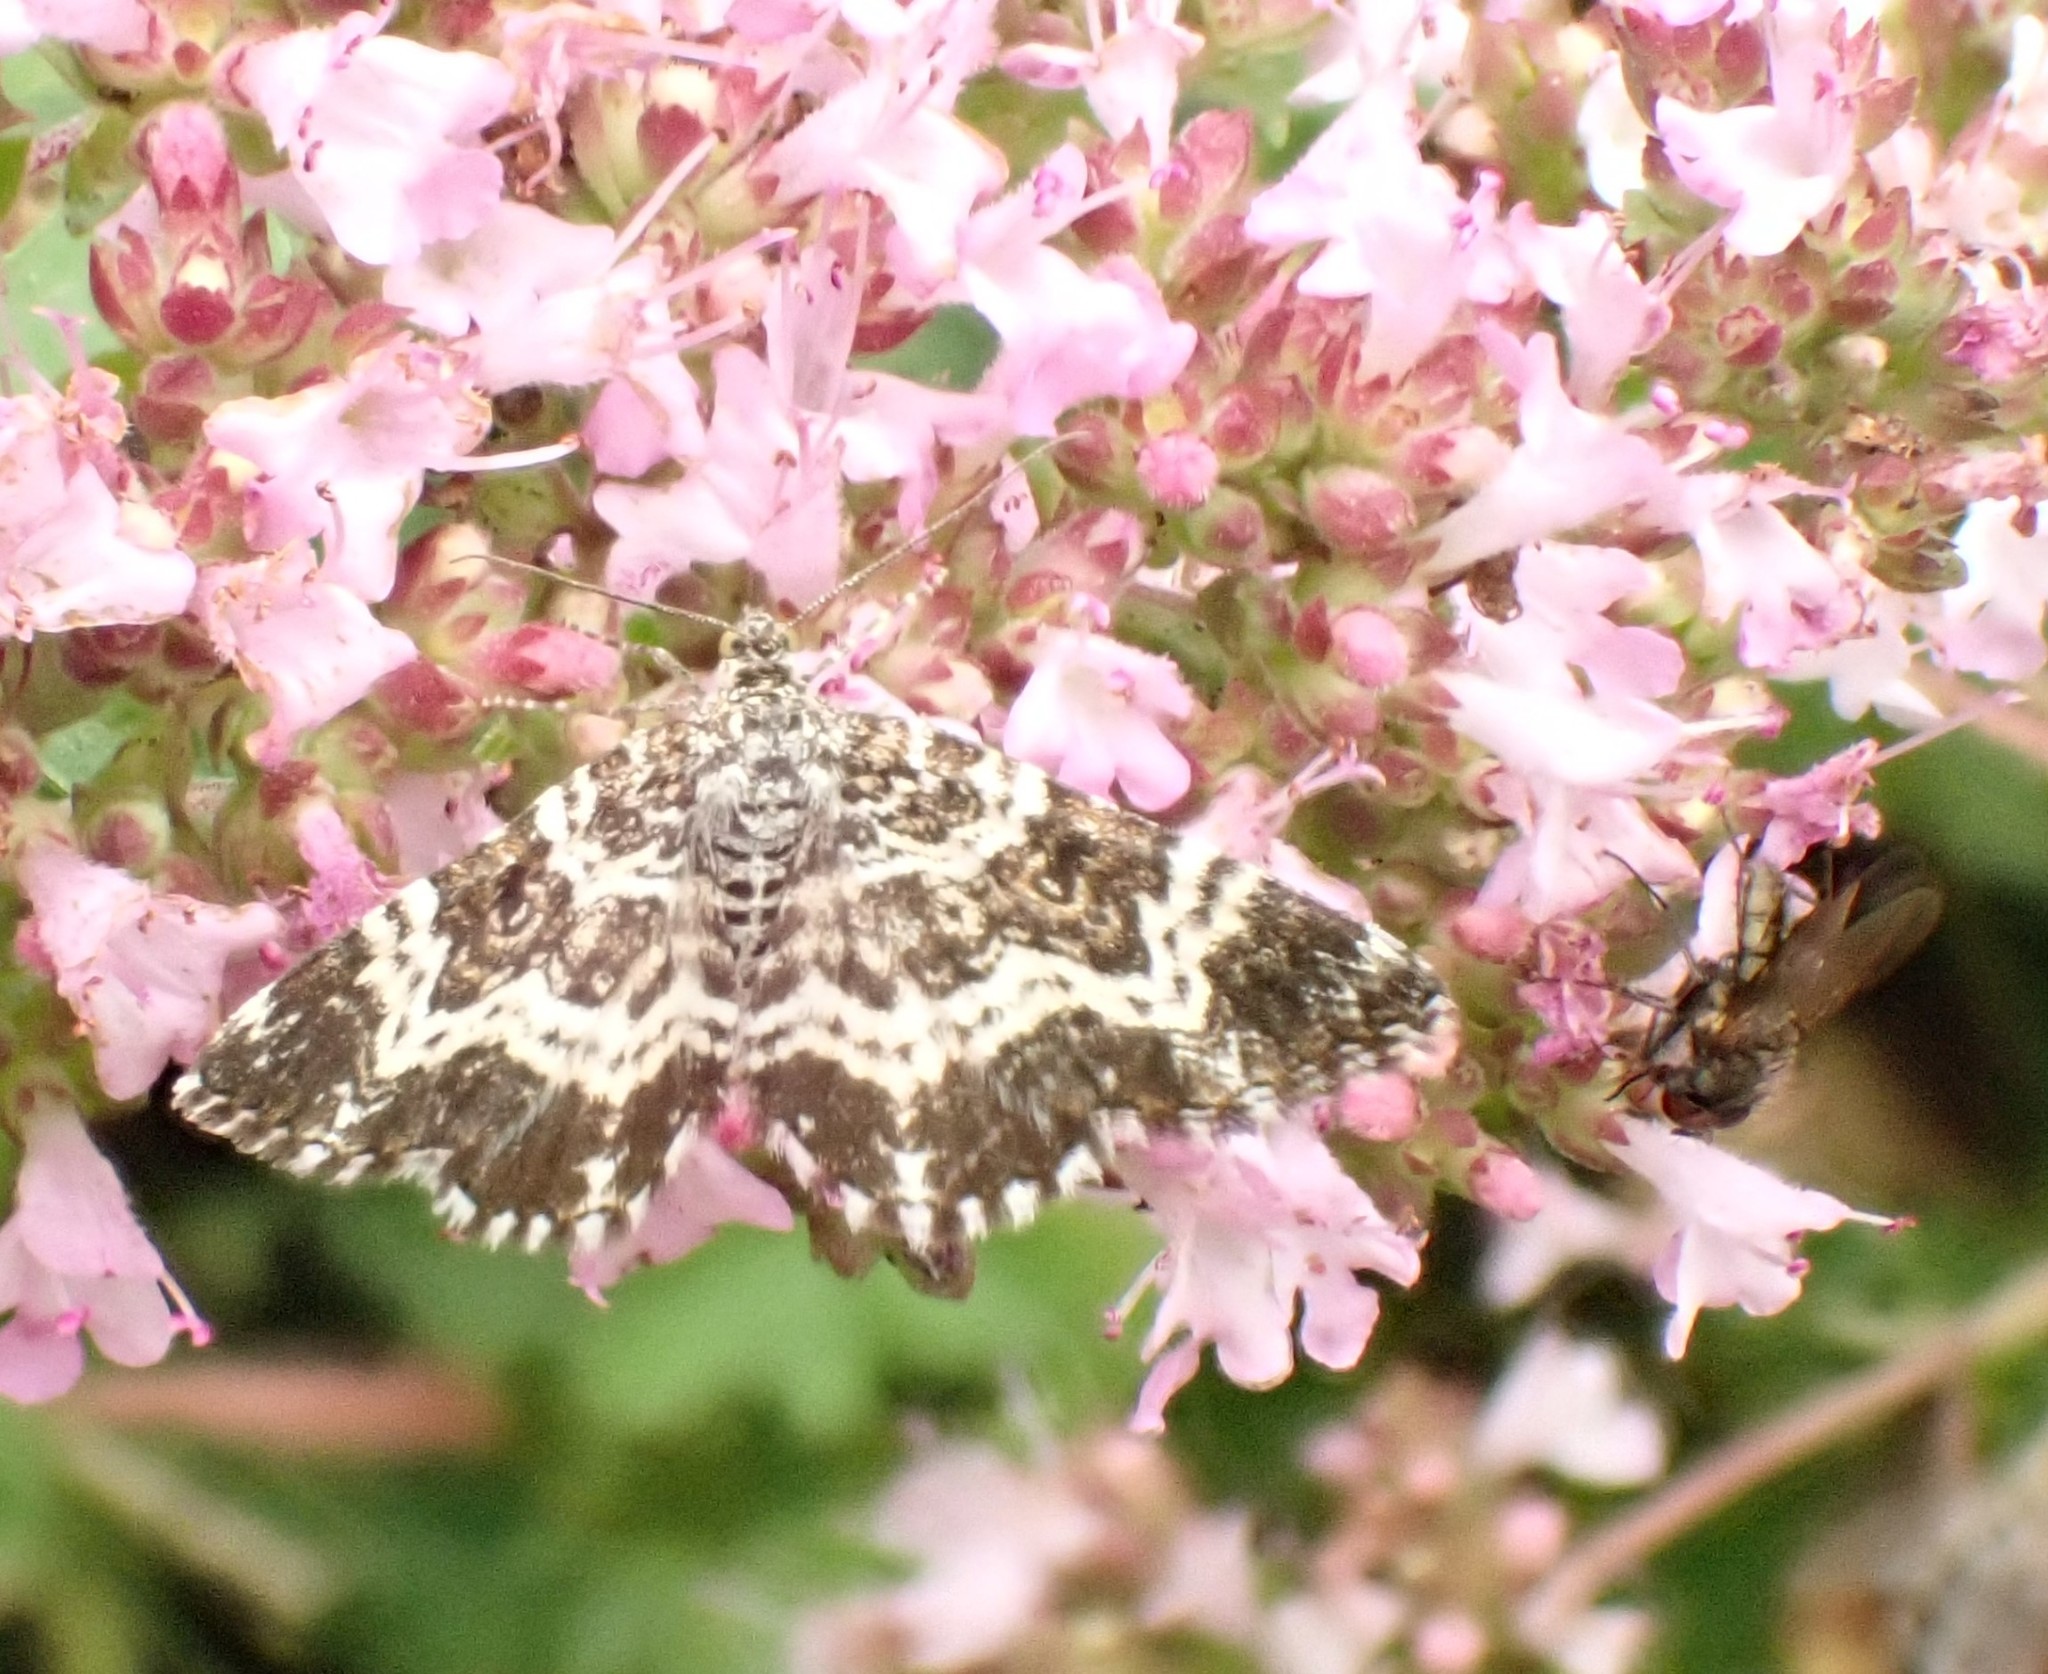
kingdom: Animalia
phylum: Arthropoda
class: Insecta
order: Lepidoptera
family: Geometridae
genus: Epirrhoe
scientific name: Epirrhoe tristata
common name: Small argent & sable
